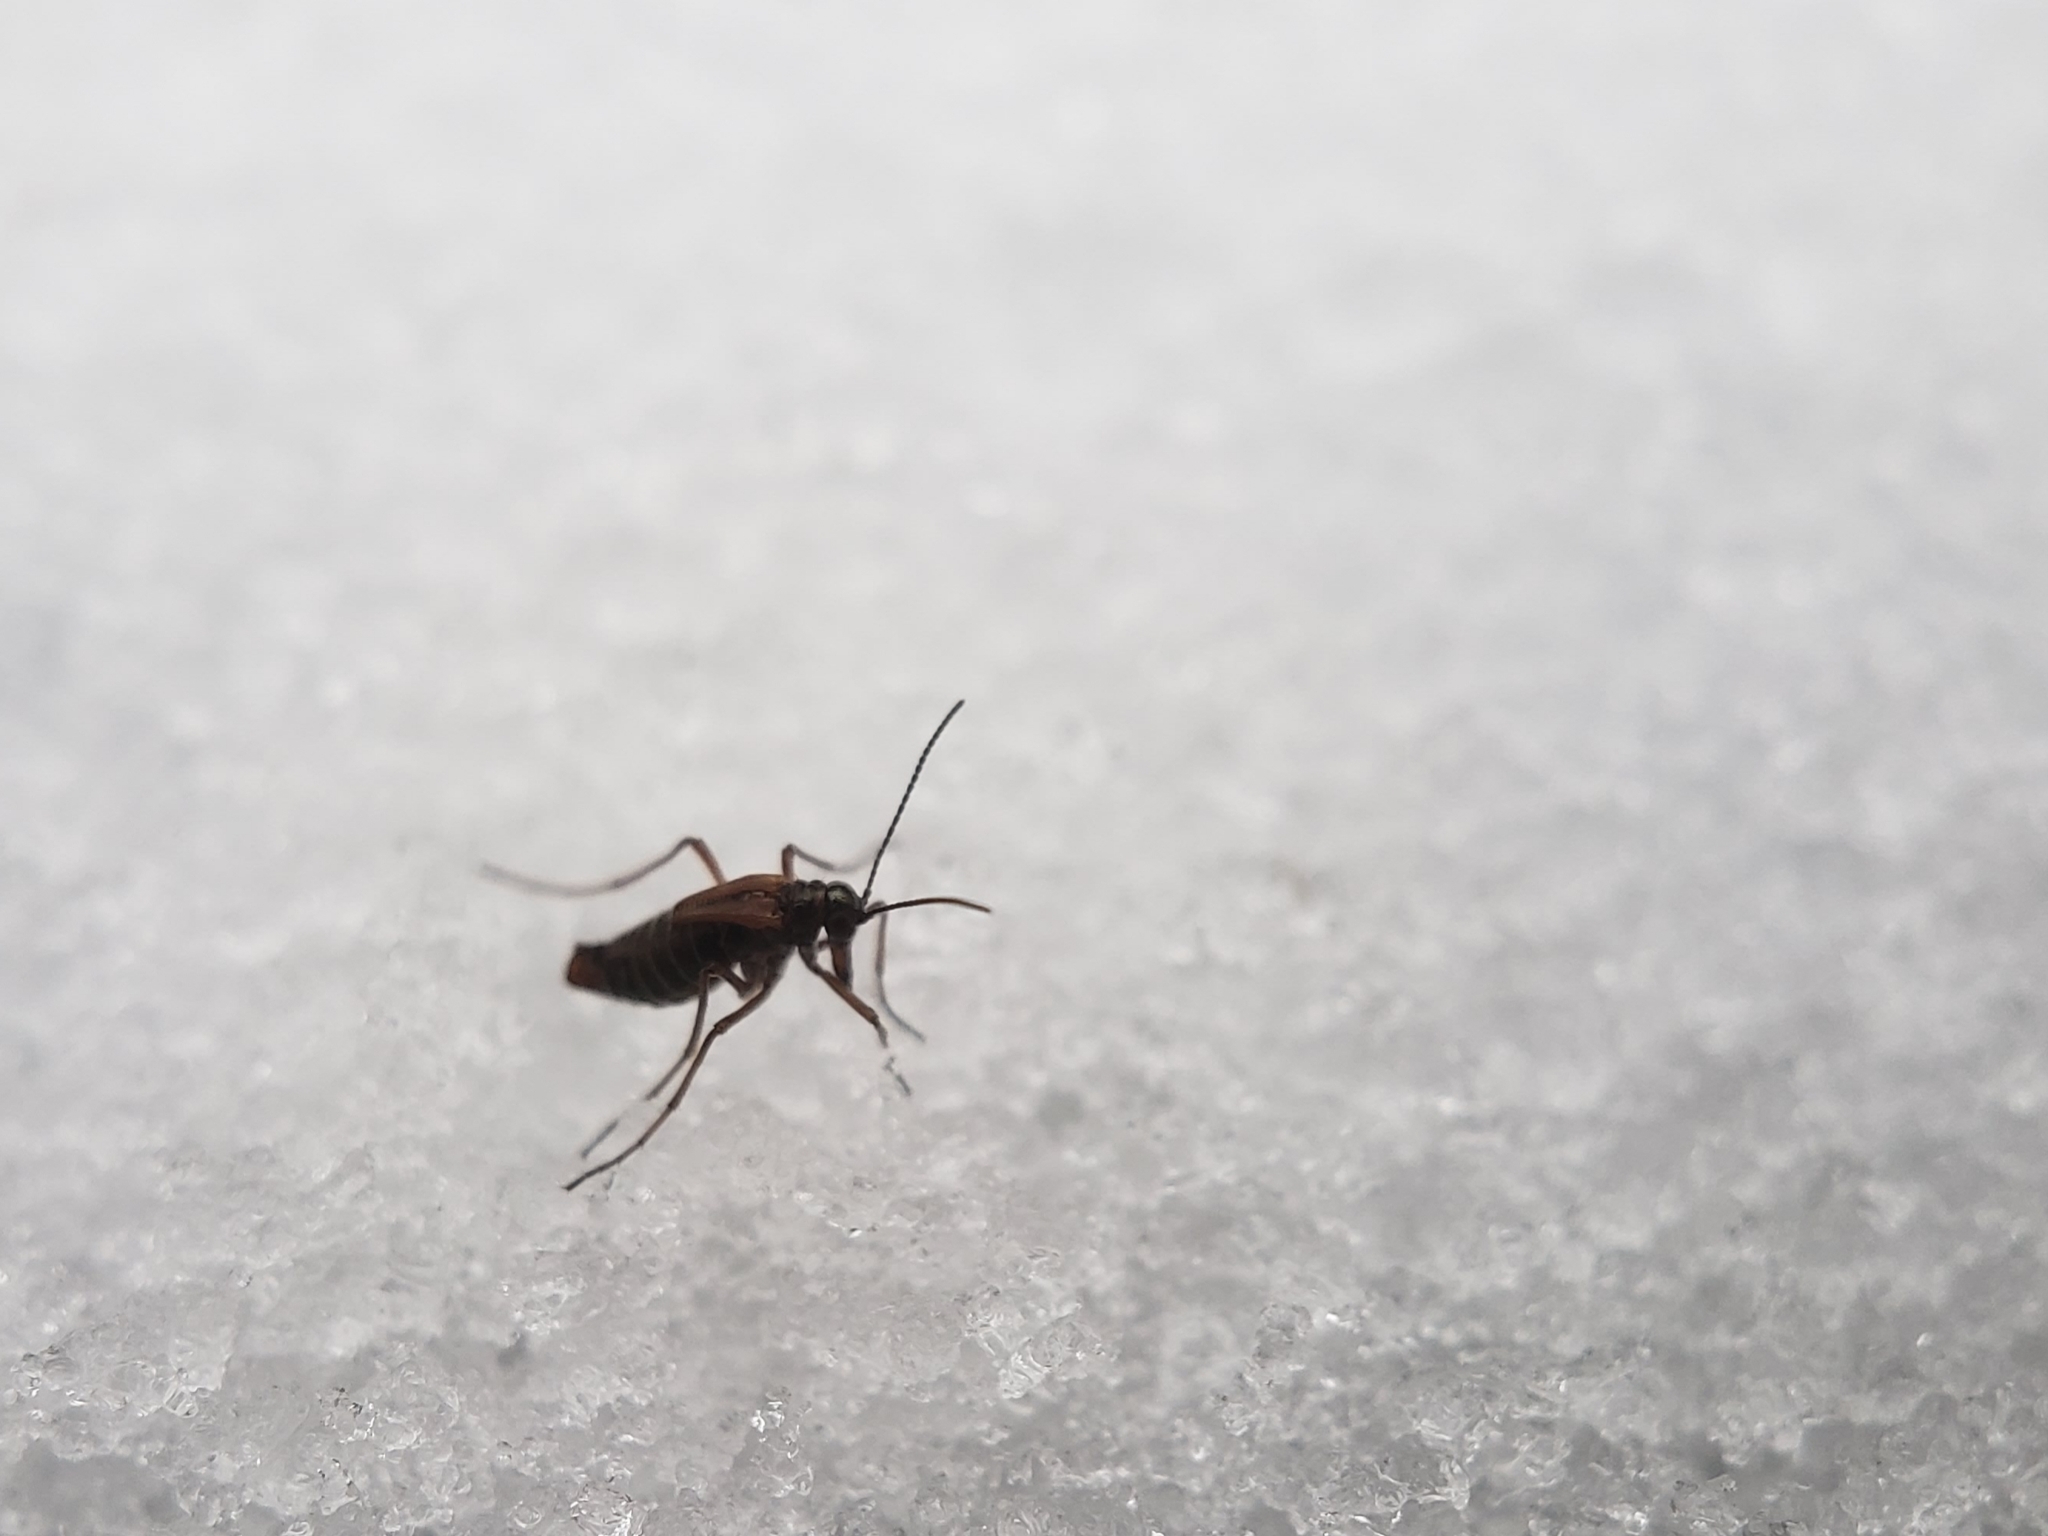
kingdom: Animalia
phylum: Arthropoda
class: Insecta
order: Mecoptera
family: Boreidae
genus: Boreus
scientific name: Boreus nivoriundus
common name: Snow-born boreus
